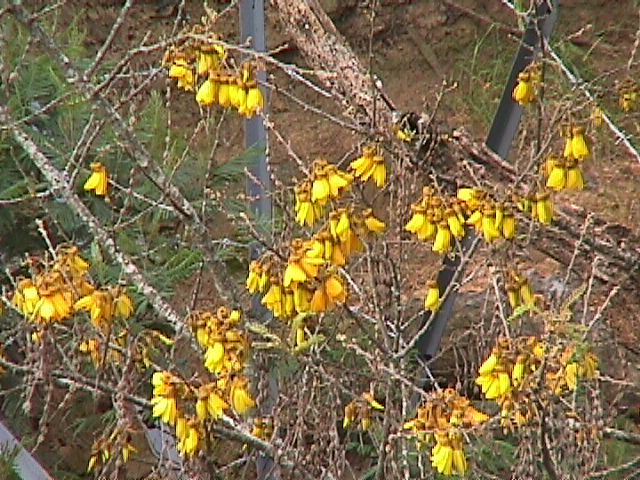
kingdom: Plantae
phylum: Tracheophyta
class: Magnoliopsida
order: Fabales
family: Fabaceae
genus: Sophora
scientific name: Sophora chathamica
